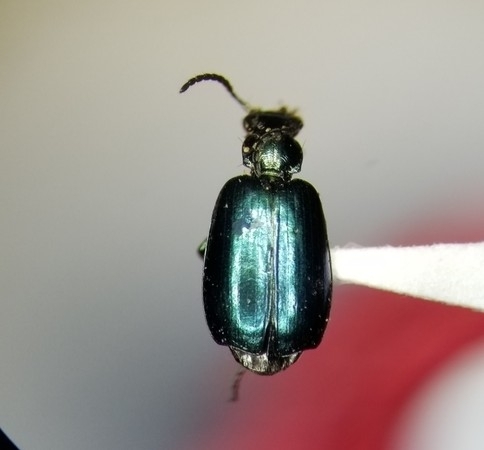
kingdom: Animalia
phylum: Arthropoda
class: Insecta
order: Coleoptera
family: Carabidae
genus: Lebia
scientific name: Lebia viridis
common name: Flower lebia beetle
